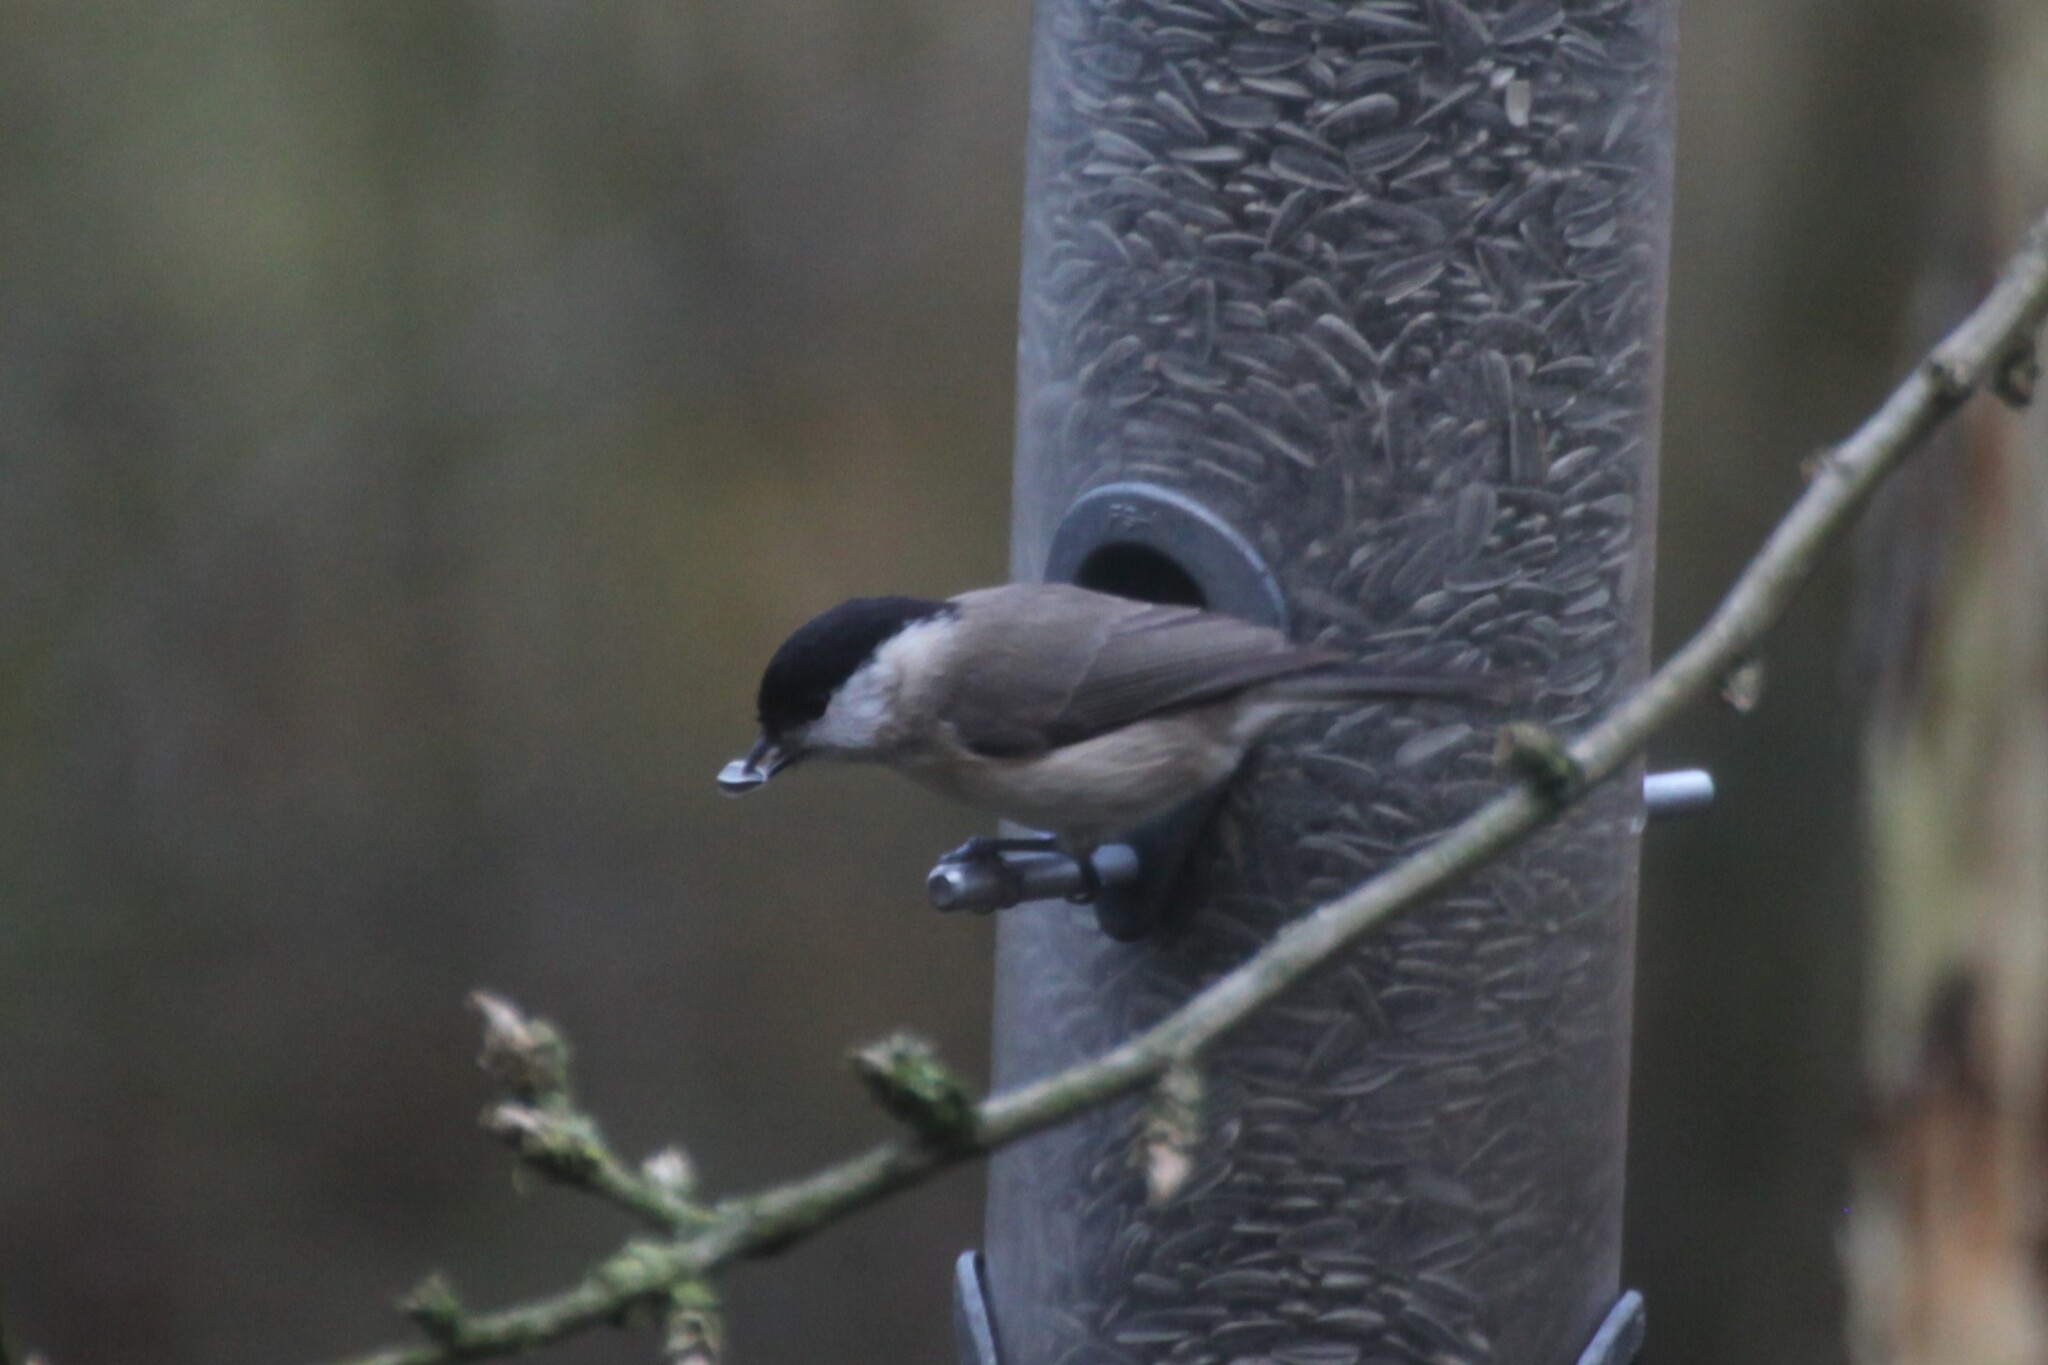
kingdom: Animalia
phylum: Chordata
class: Aves
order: Passeriformes
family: Paridae
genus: Poecile
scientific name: Poecile palustris
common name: Marsh tit
